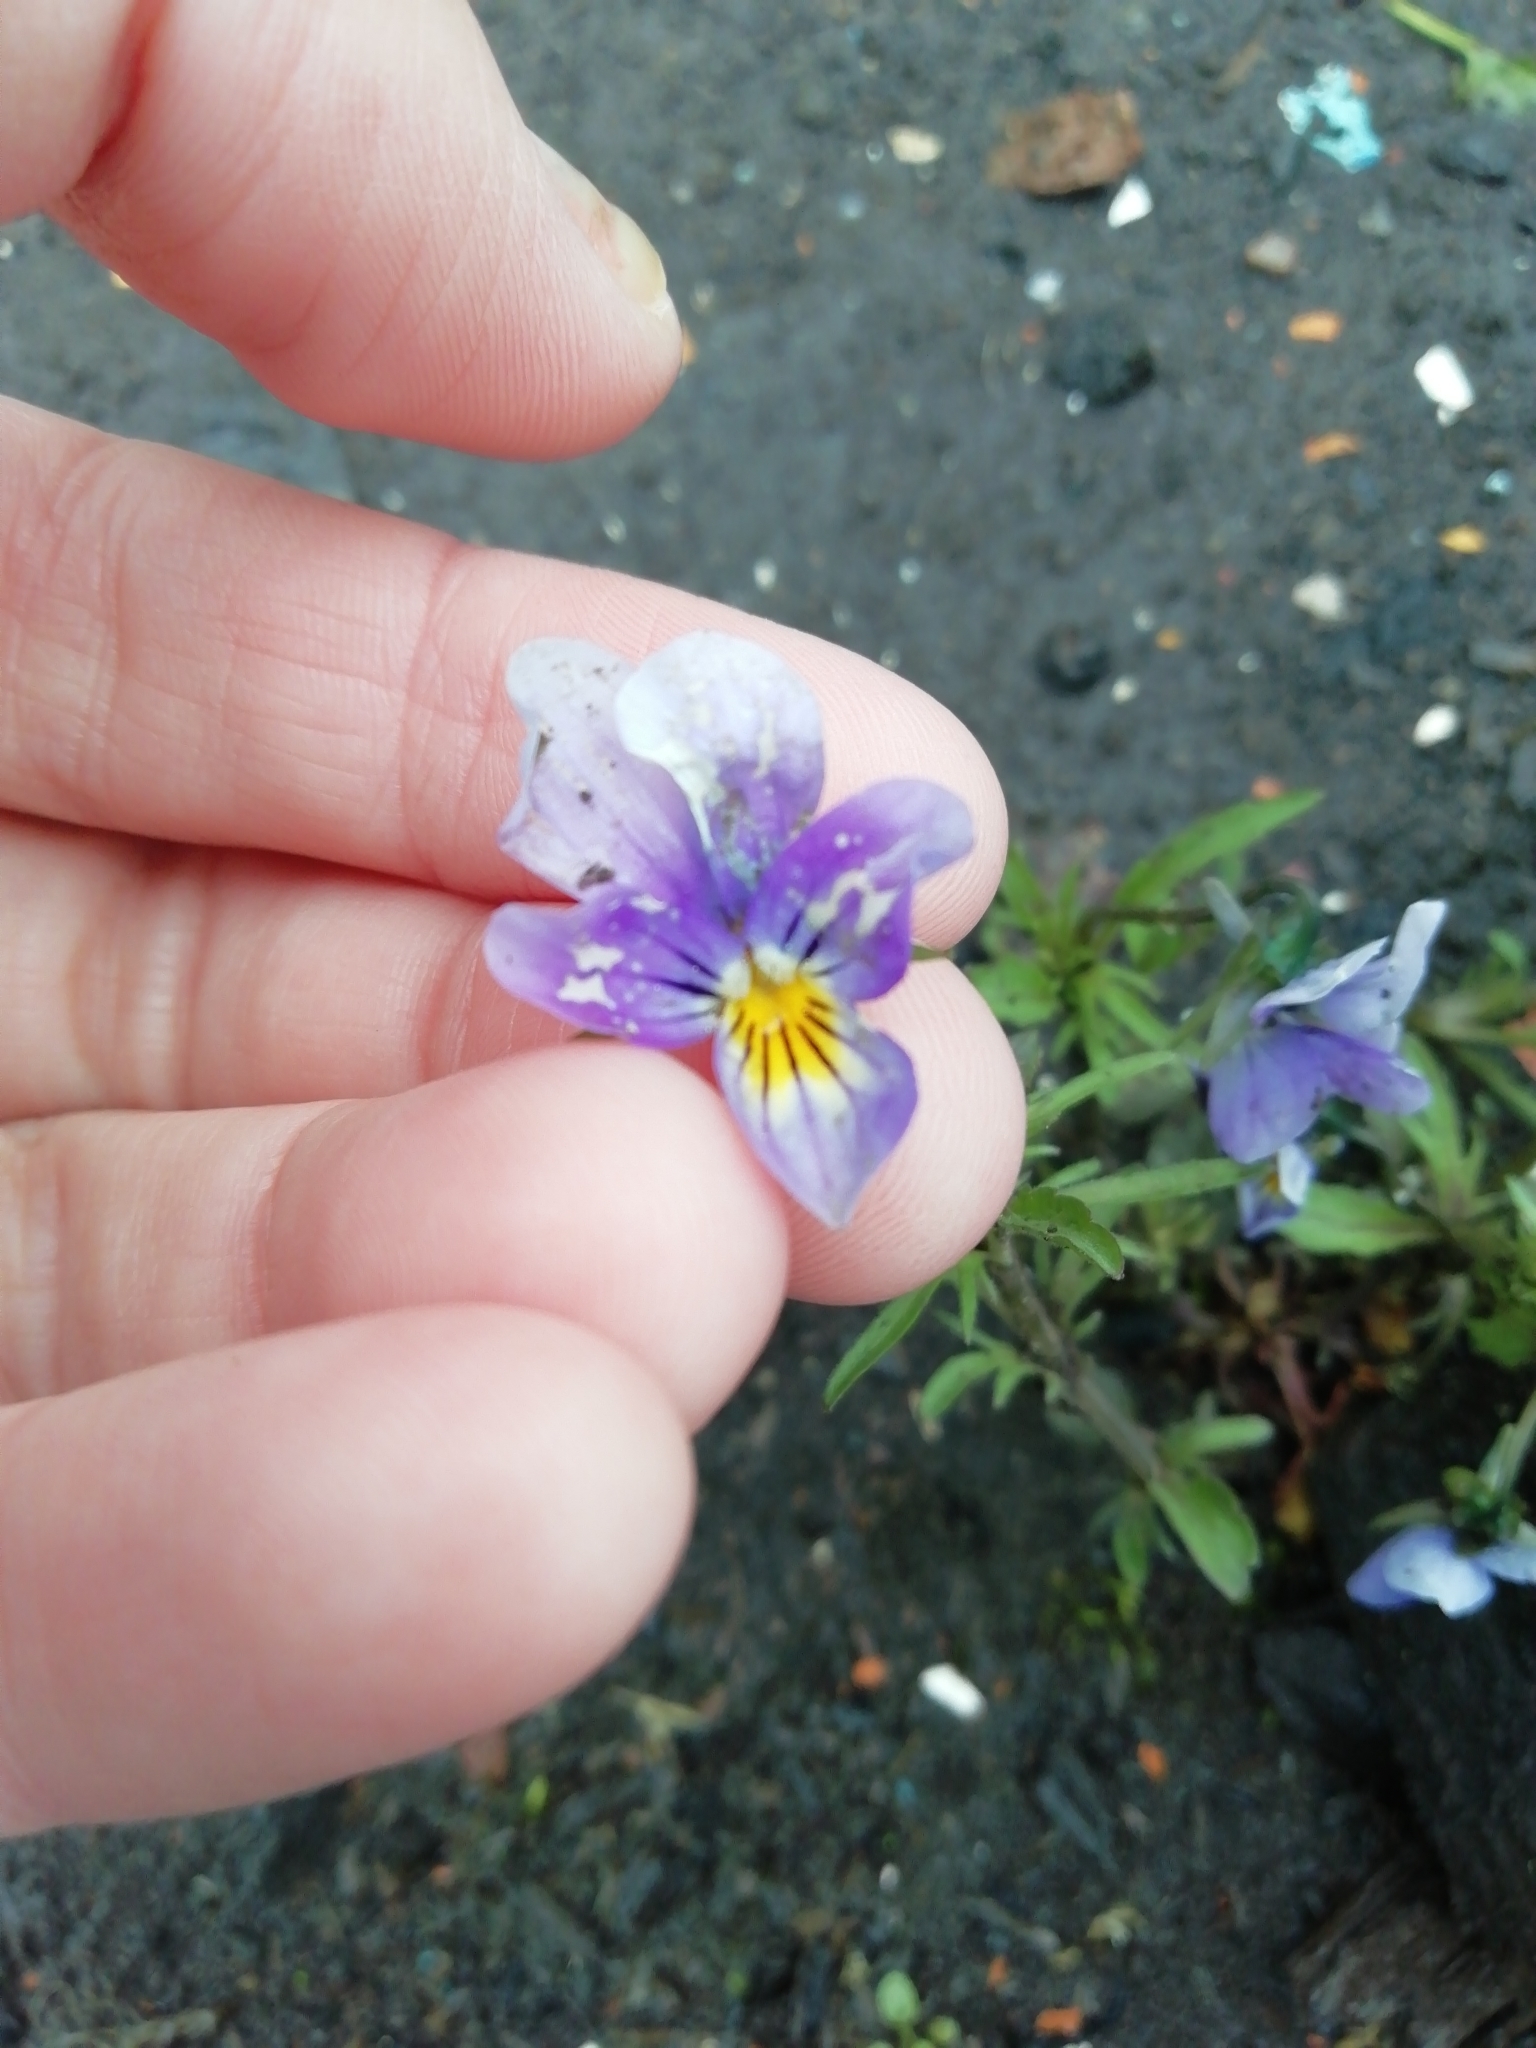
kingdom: Plantae
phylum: Tracheophyta
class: Magnoliopsida
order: Malpighiales
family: Violaceae
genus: Viola
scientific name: Viola tricolor
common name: Pansy
